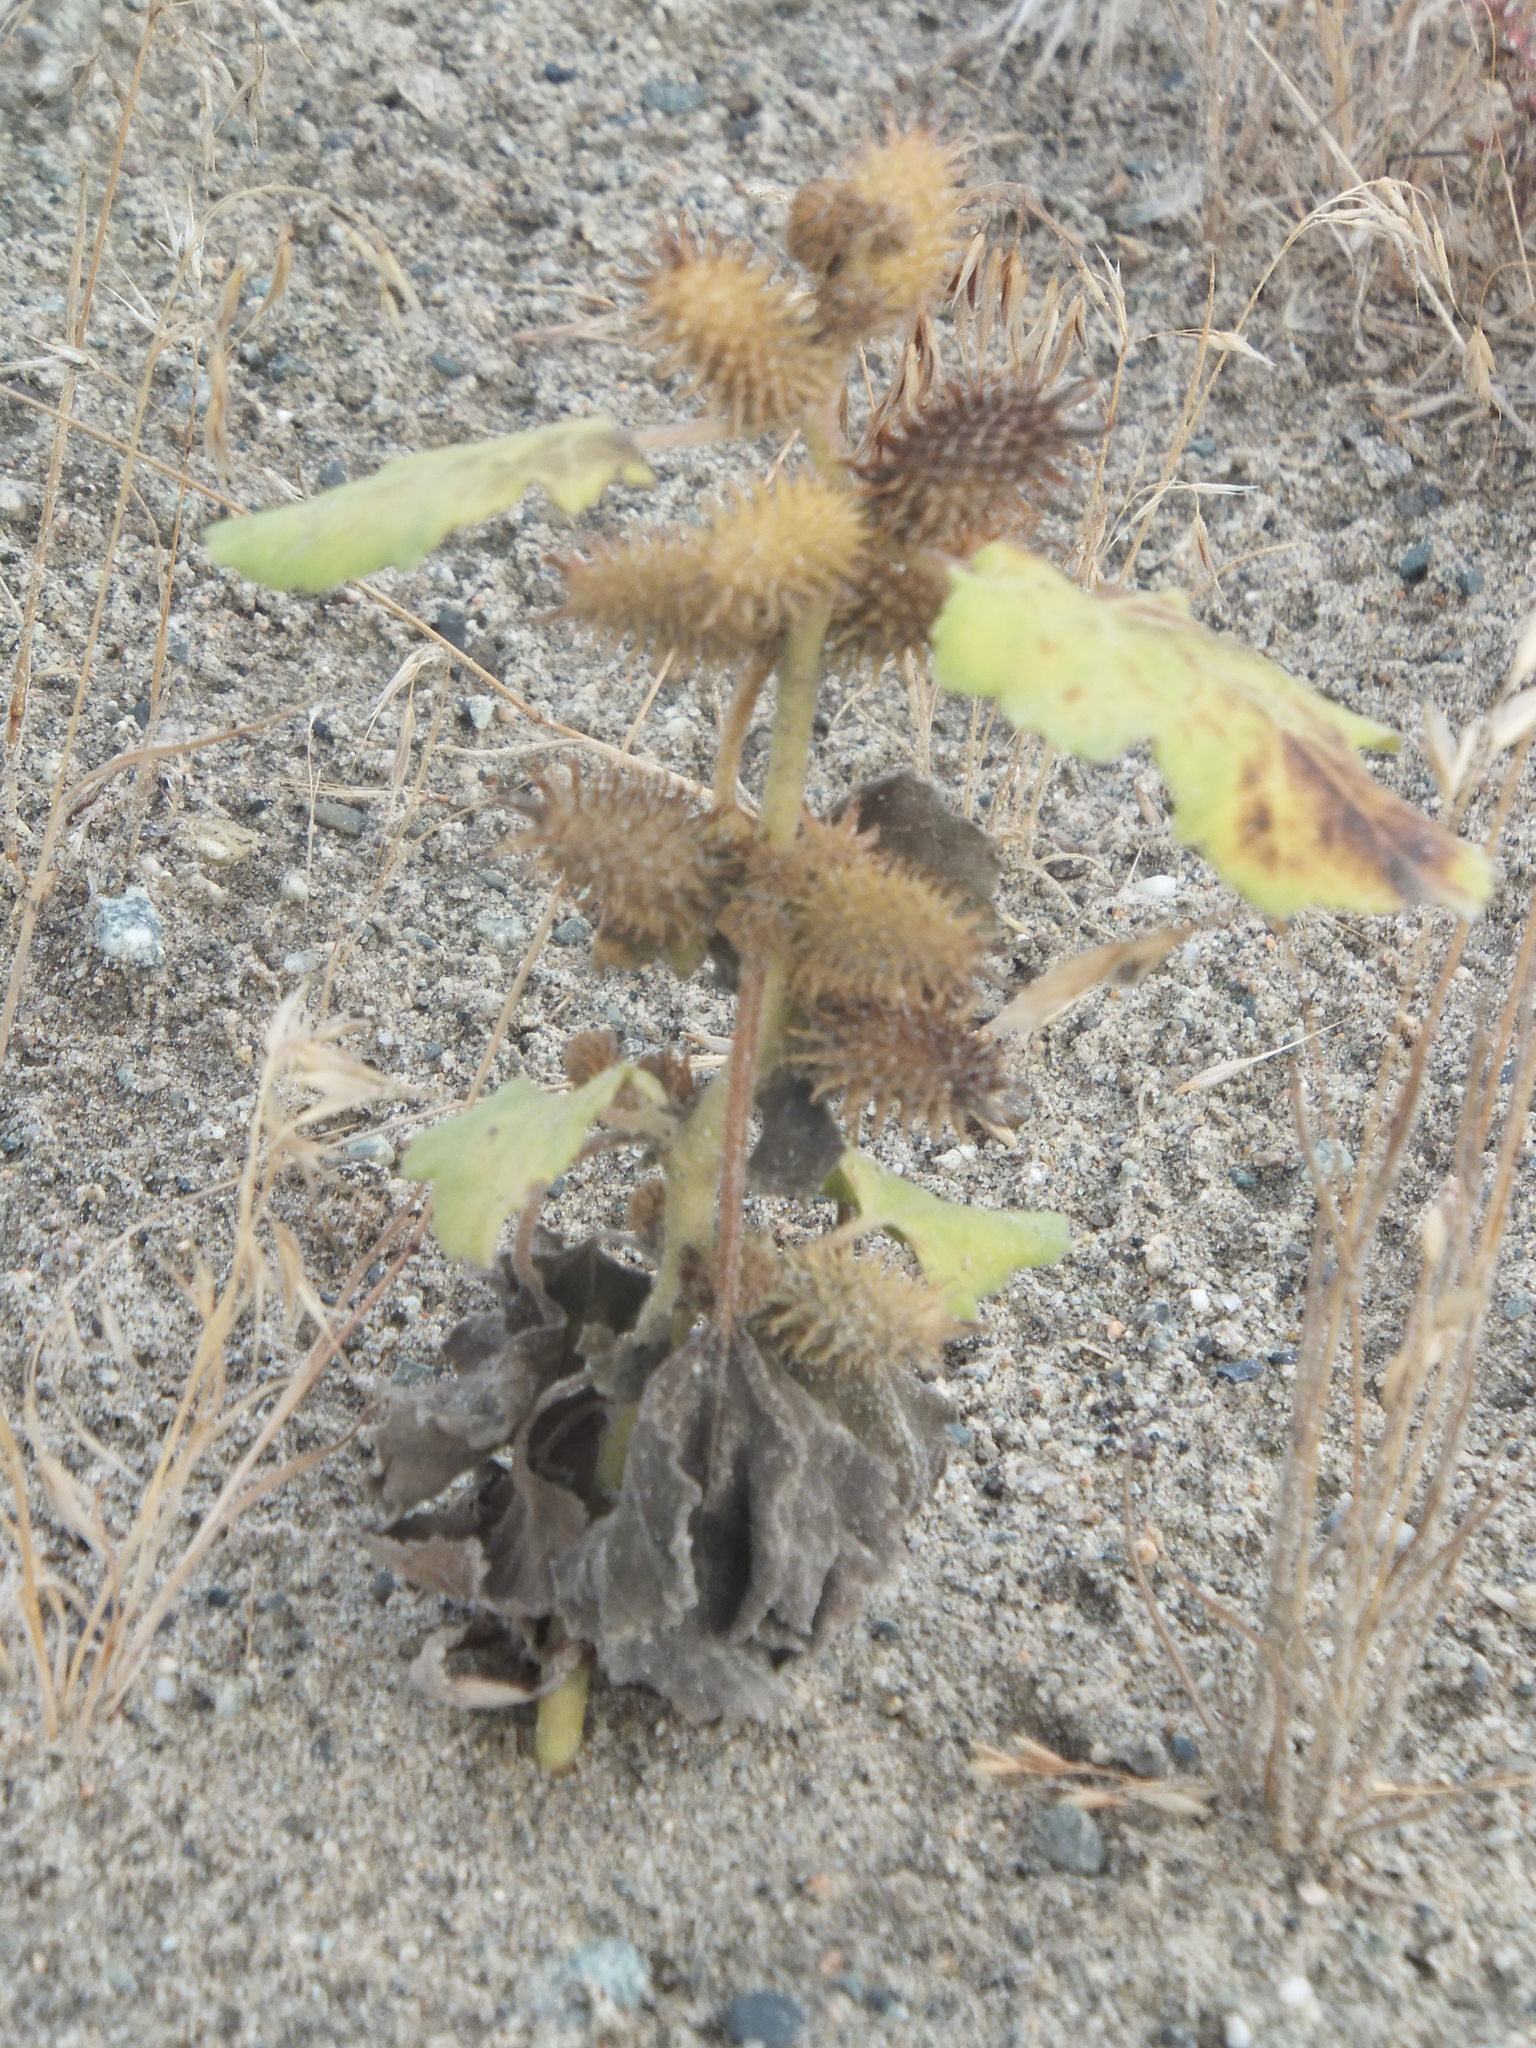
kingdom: Plantae
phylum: Tracheophyta
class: Magnoliopsida
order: Asterales
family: Asteraceae
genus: Xanthium
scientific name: Xanthium strumarium
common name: Rough cocklebur
